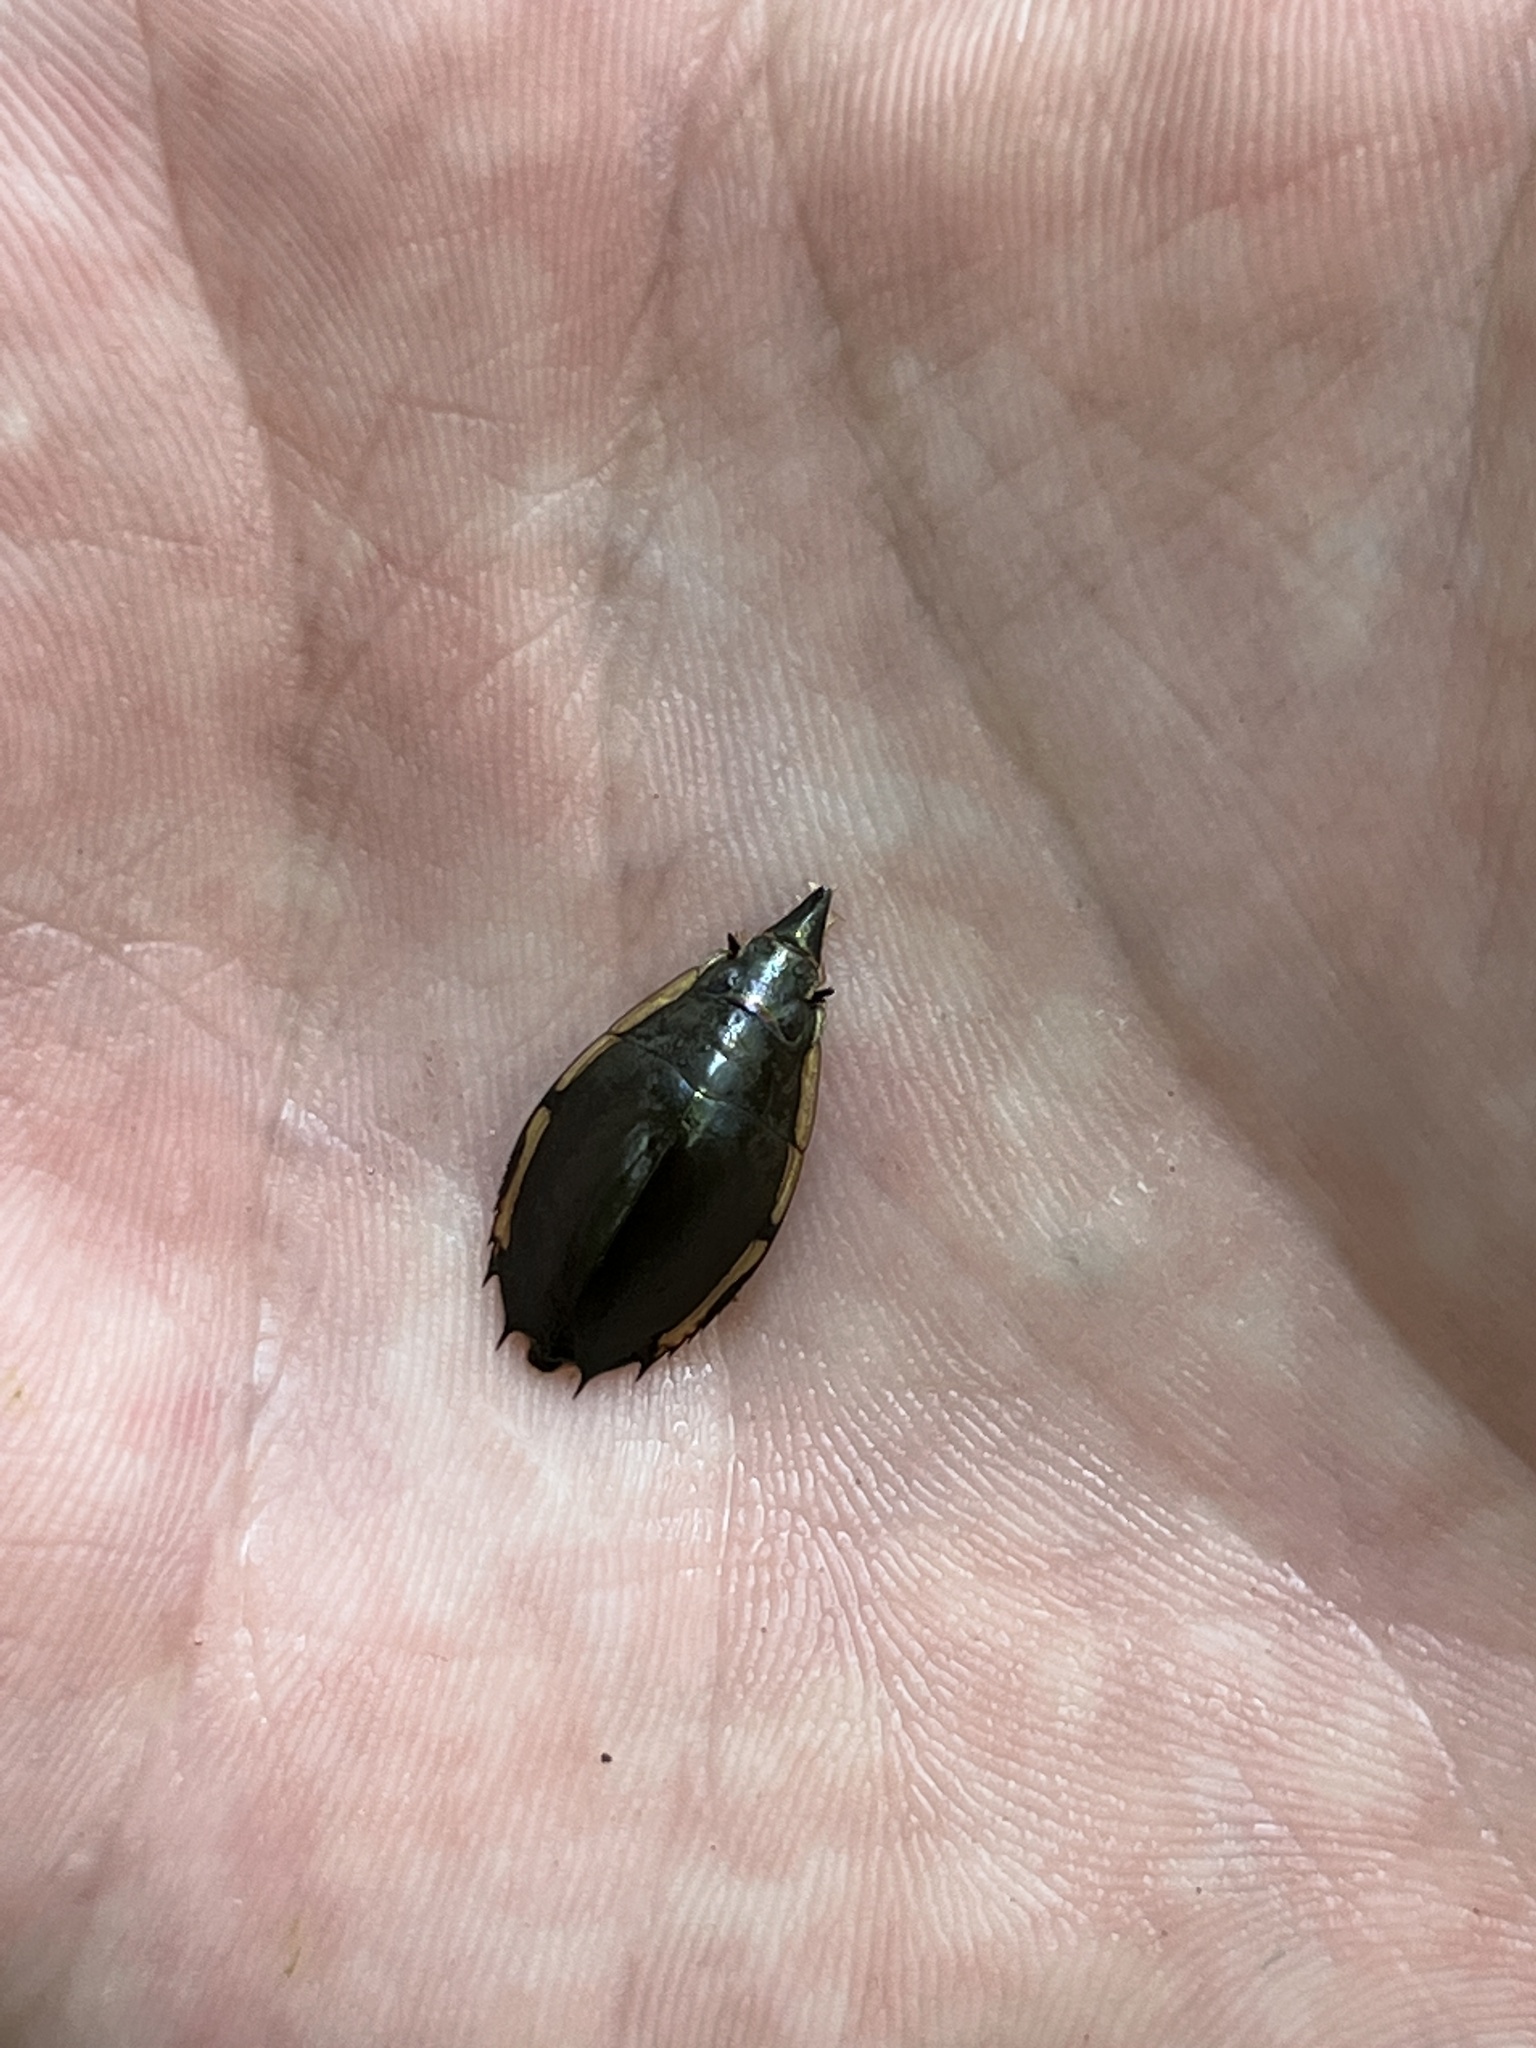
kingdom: Animalia
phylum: Arthropoda
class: Insecta
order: Coleoptera
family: Gyrinidae
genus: Porrorhynchus
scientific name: Porrorhynchus marginatus
